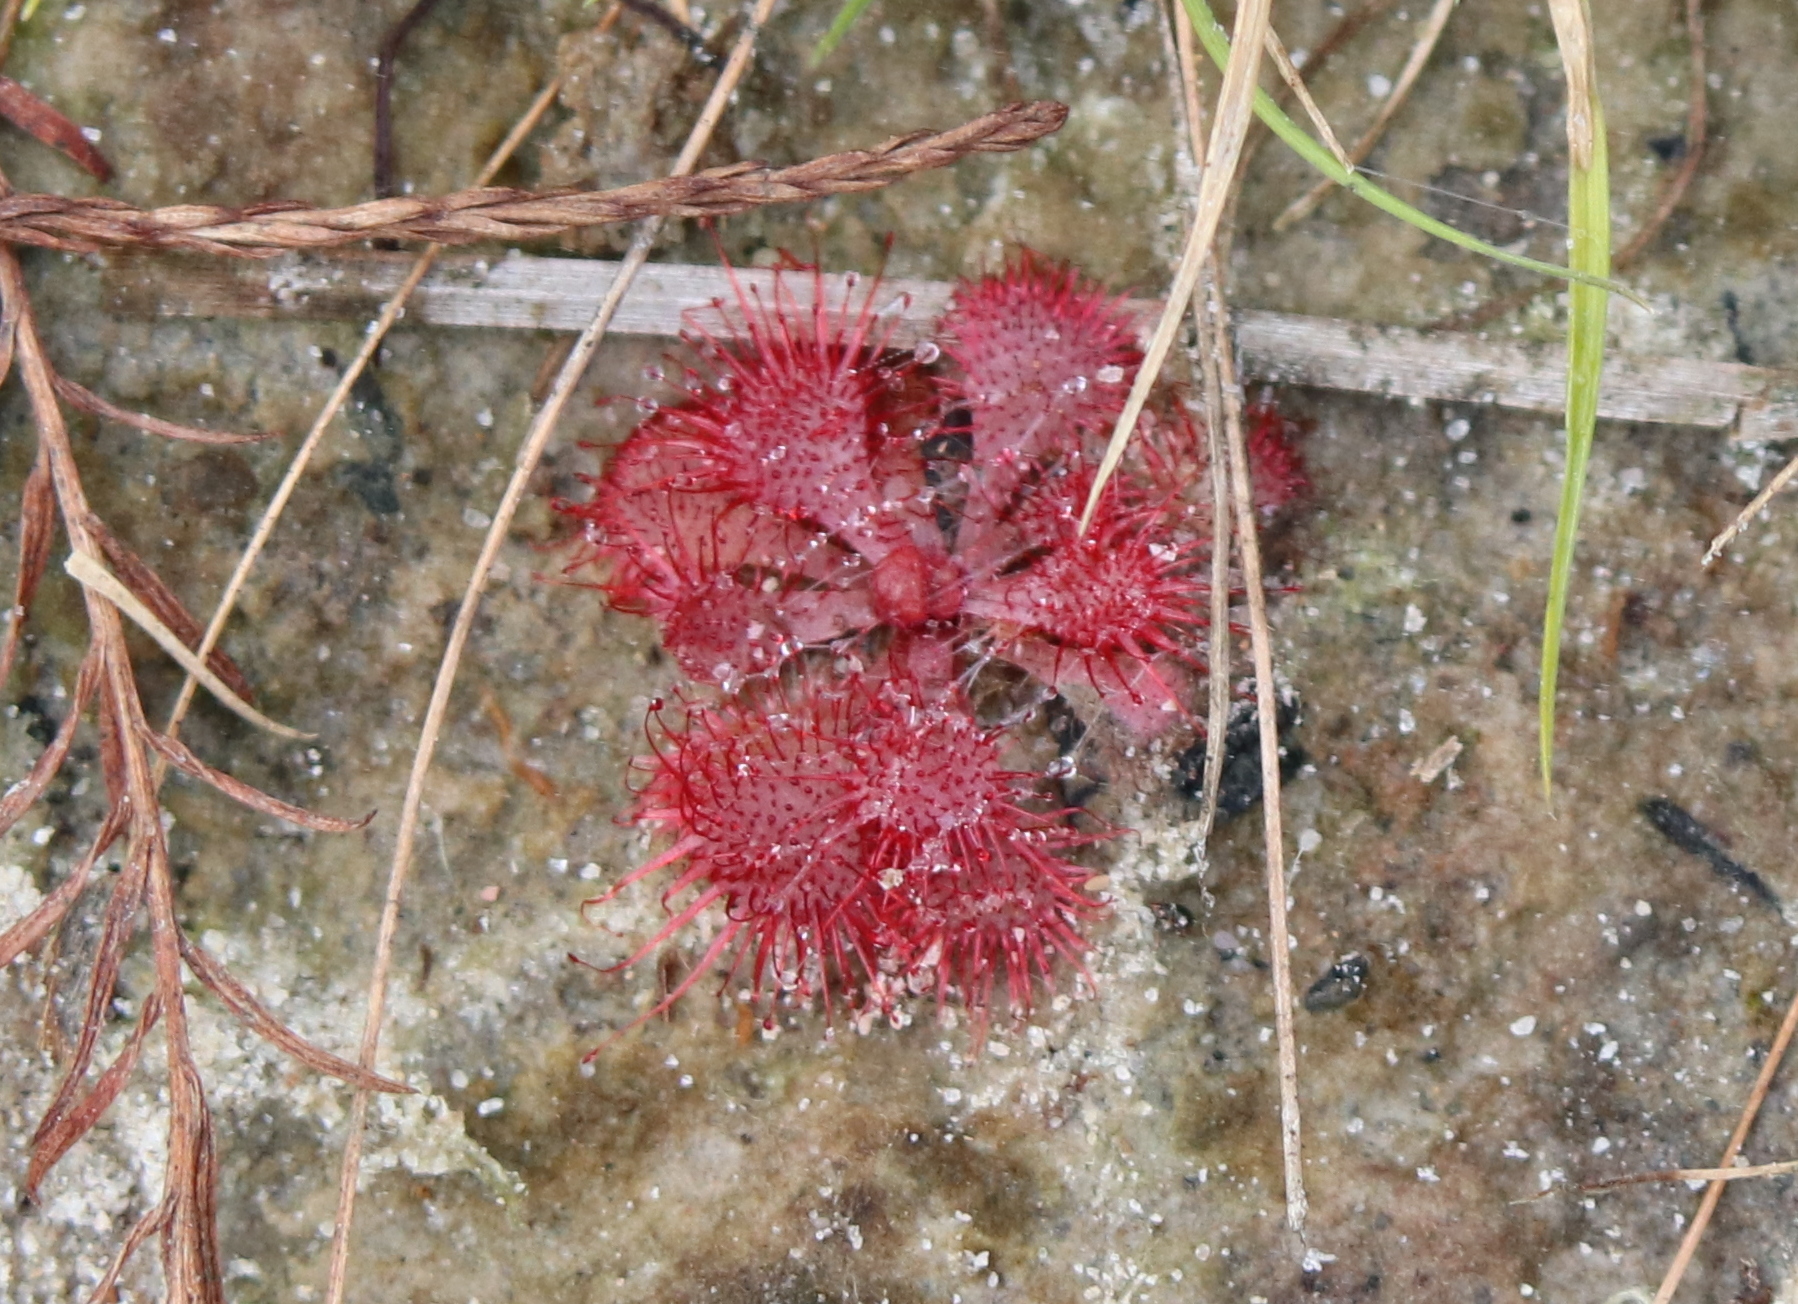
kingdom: Plantae
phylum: Tracheophyta
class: Magnoliopsida
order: Caryophyllales
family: Droseraceae
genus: Drosera
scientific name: Drosera brevifolia
